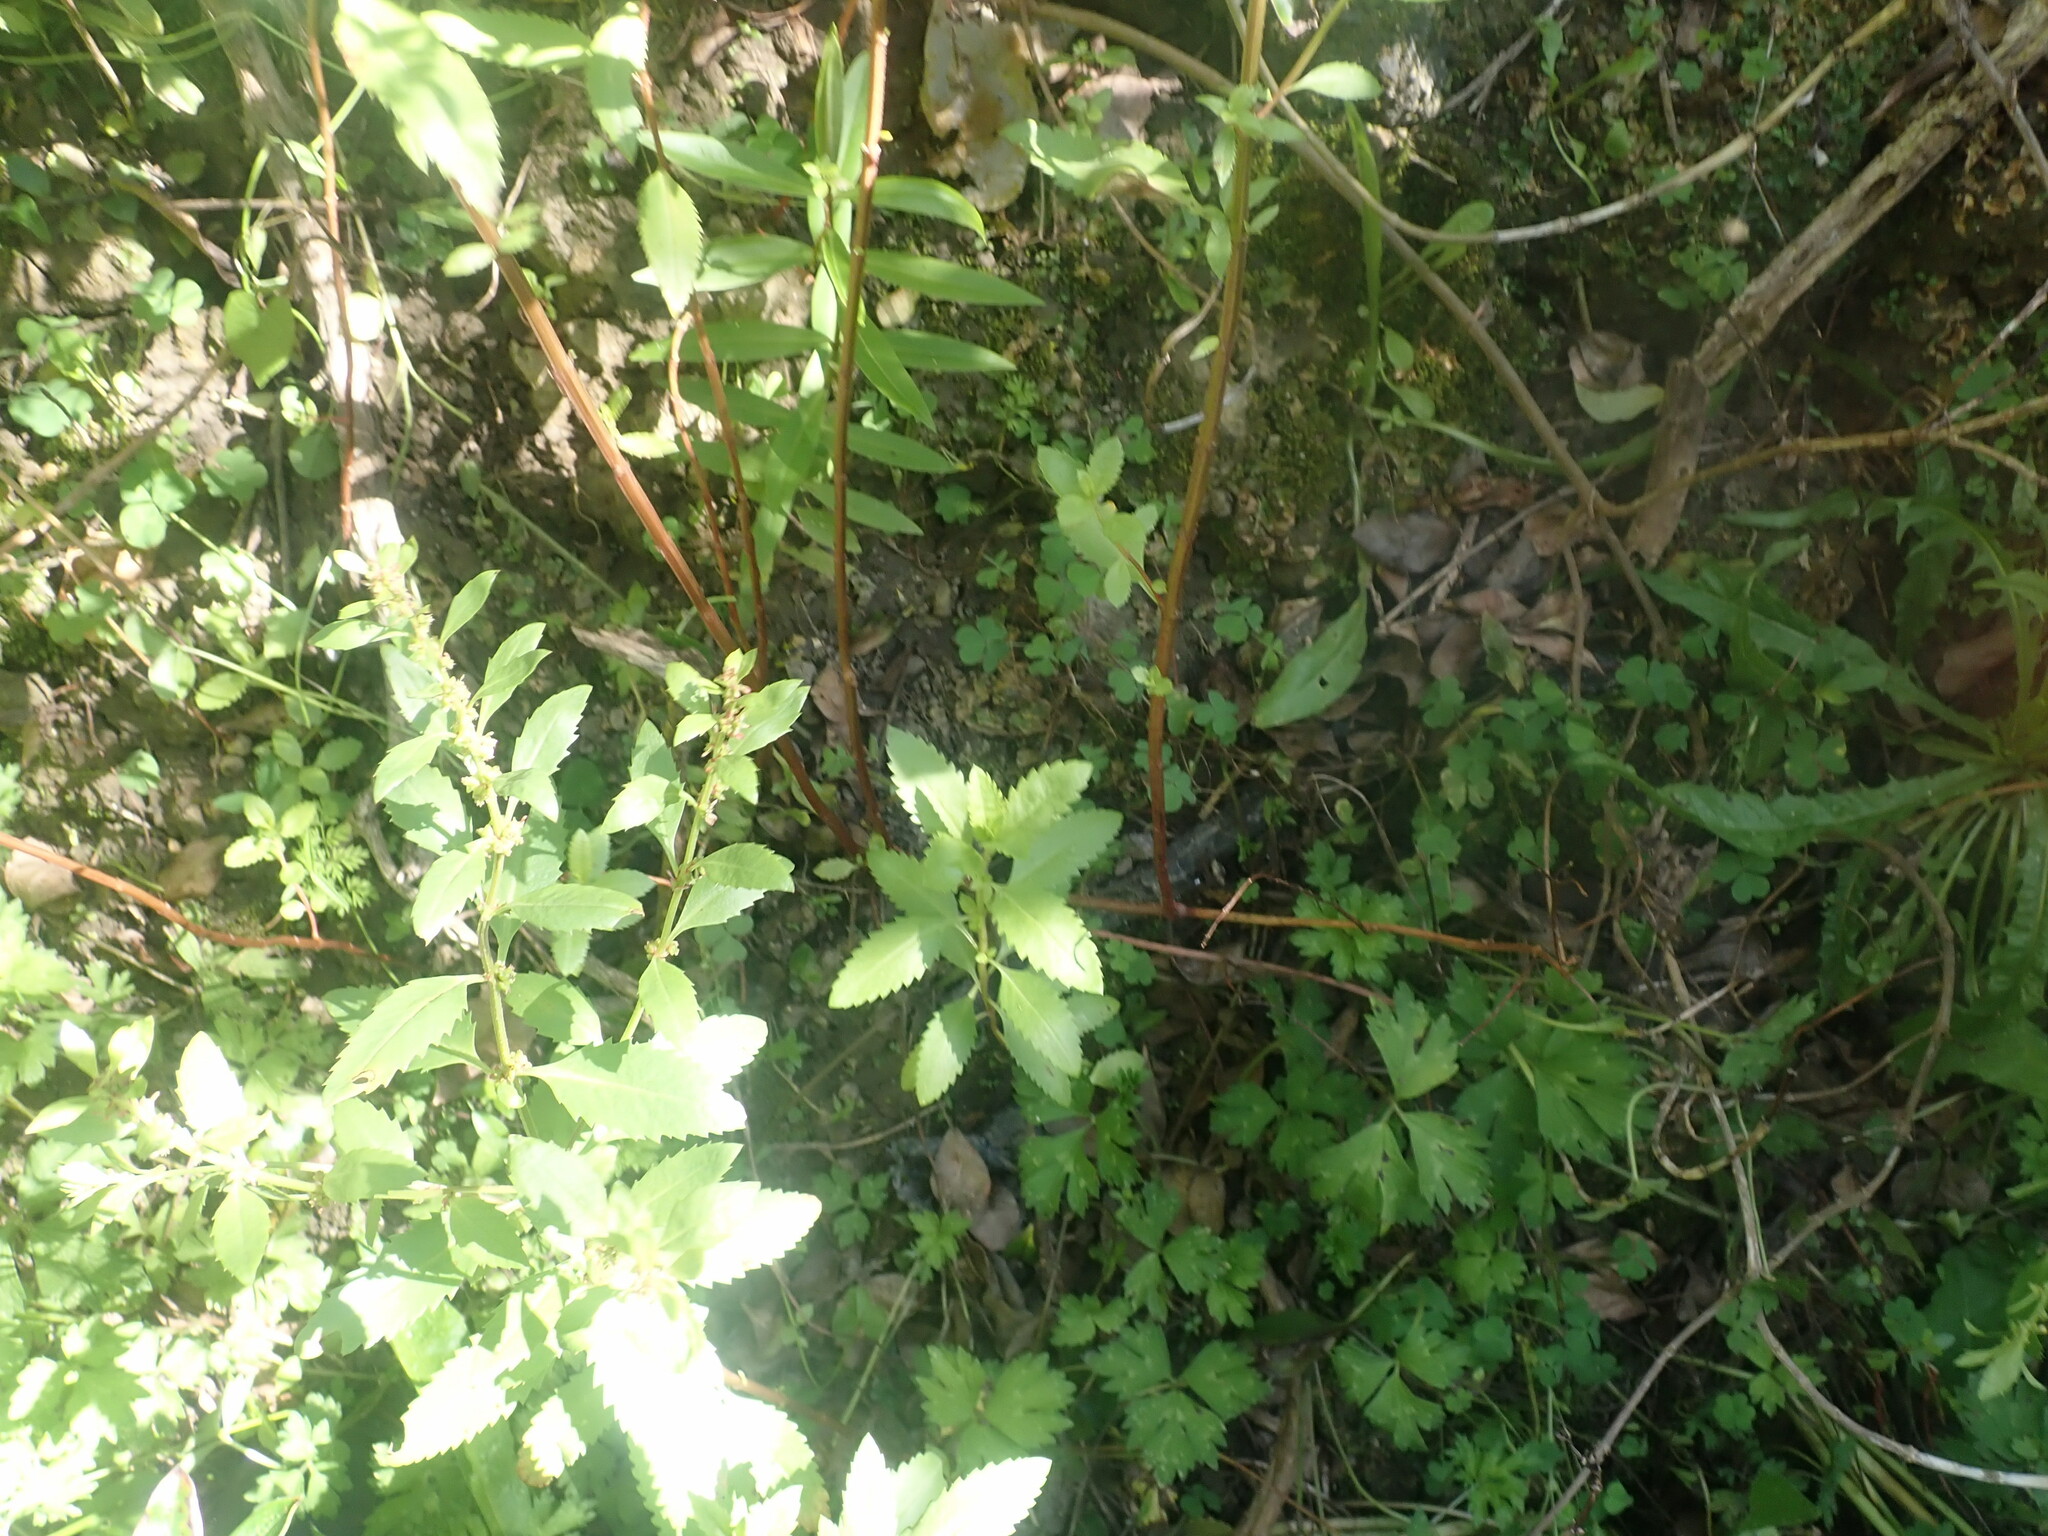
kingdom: Plantae
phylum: Tracheophyta
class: Magnoliopsida
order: Lamiales
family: Plantaginaceae
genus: Veronica
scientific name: Veronica stricta
